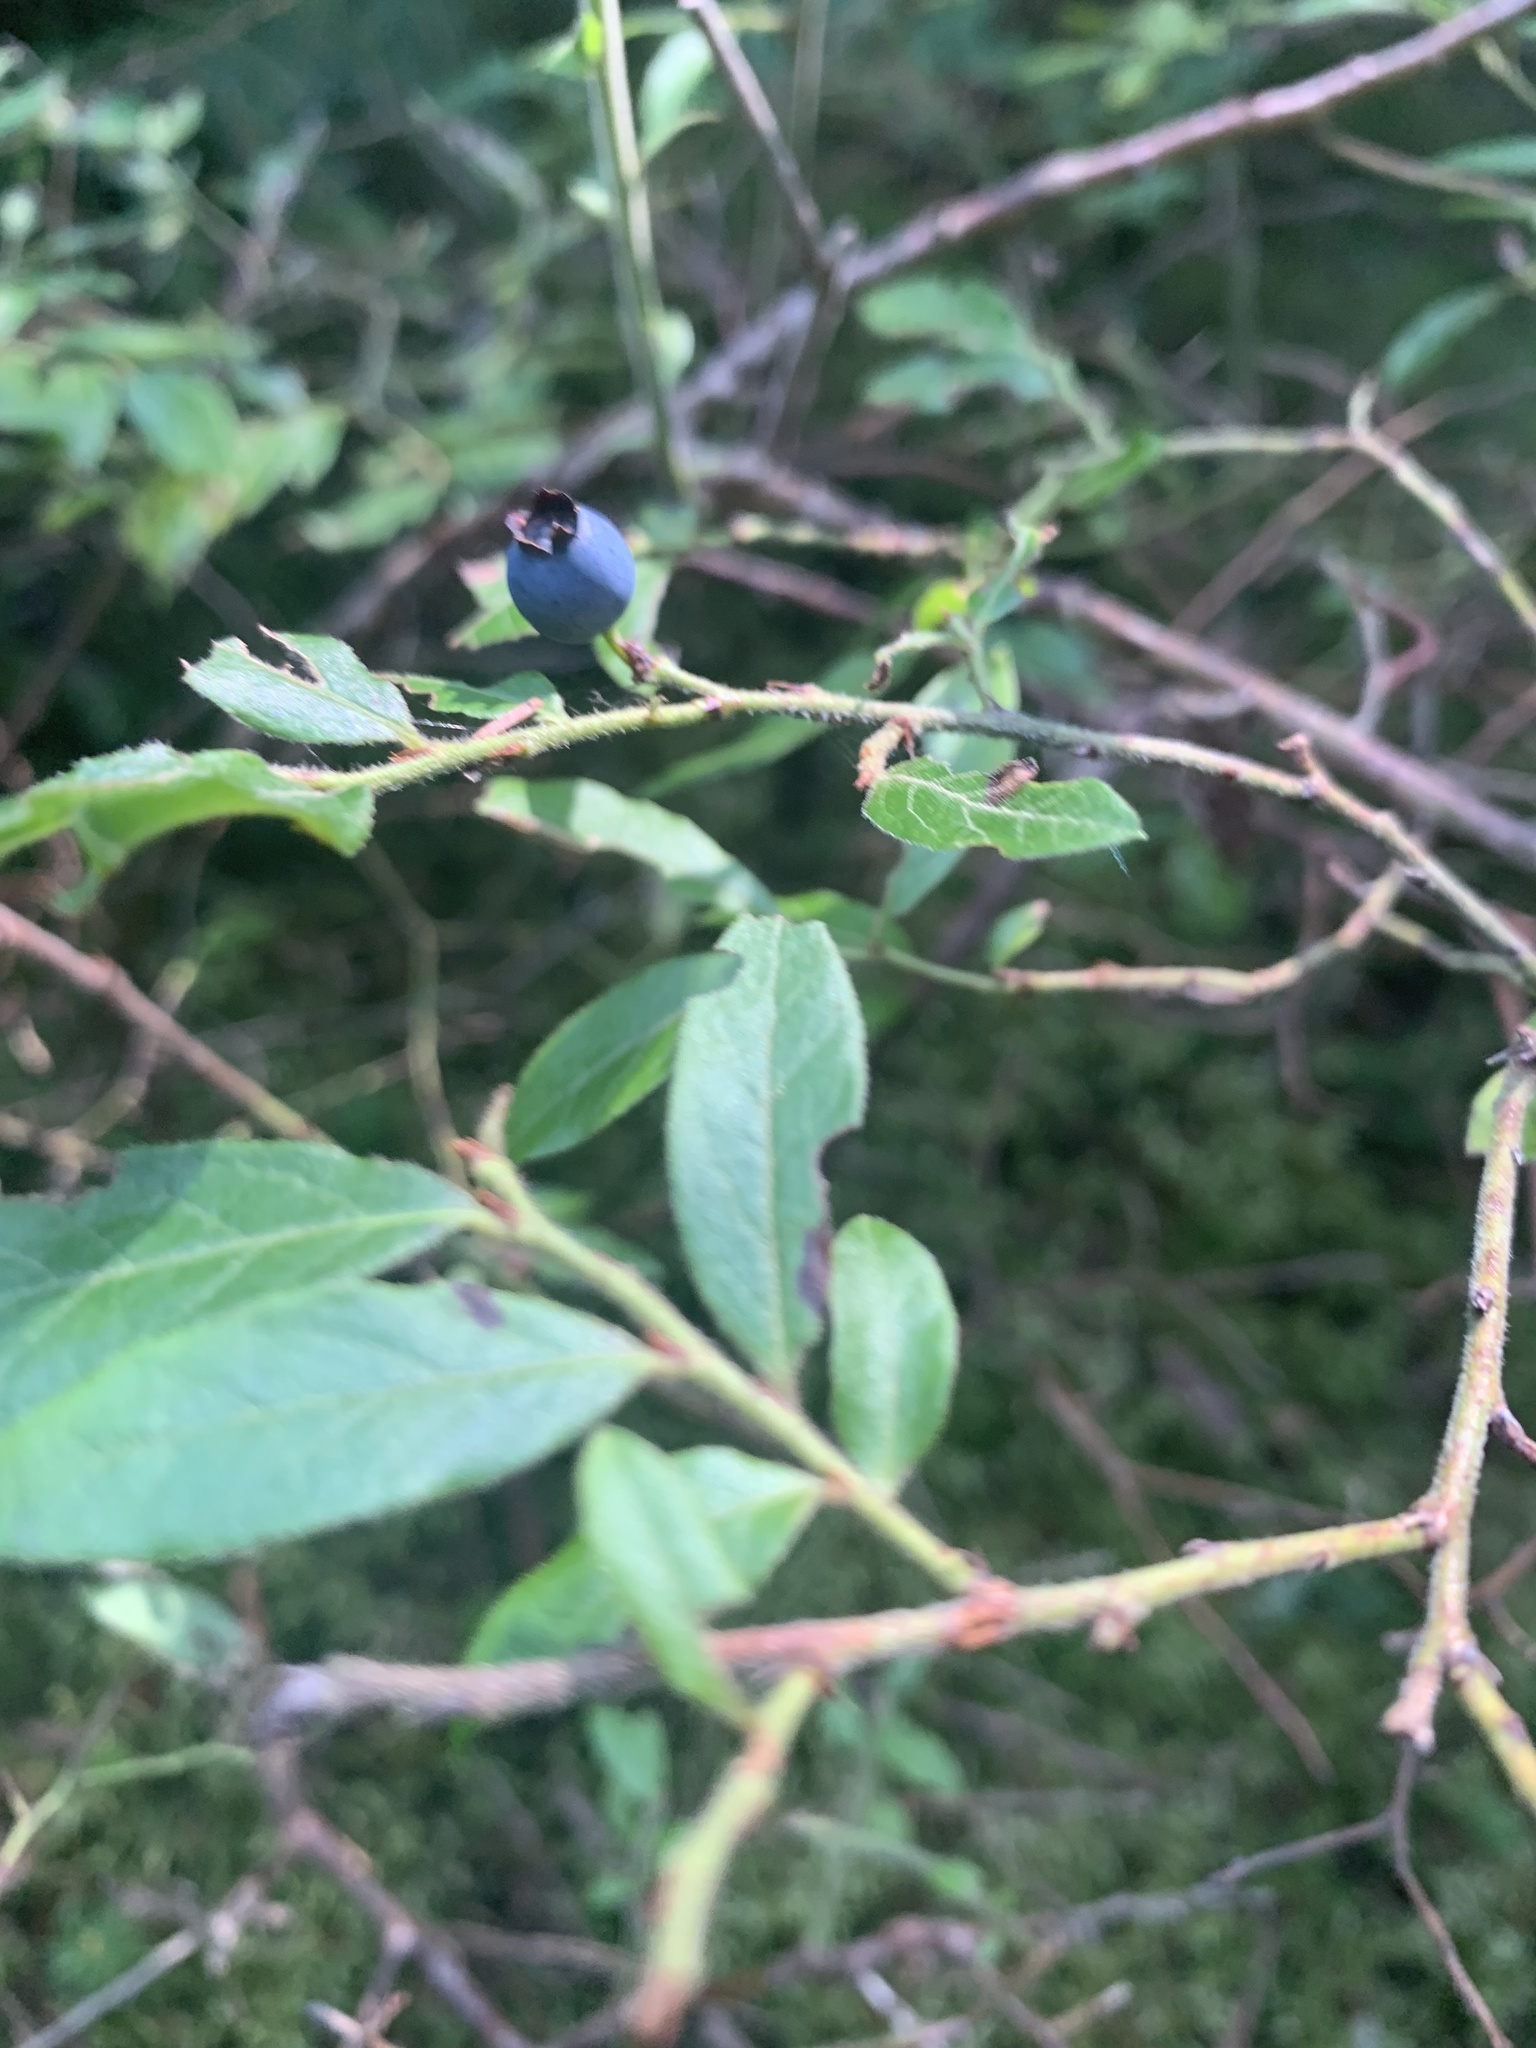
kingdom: Plantae
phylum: Tracheophyta
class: Magnoliopsida
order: Ericales
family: Ericaceae
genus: Vaccinium
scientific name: Vaccinium myrtilloides
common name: Canada blueberry
